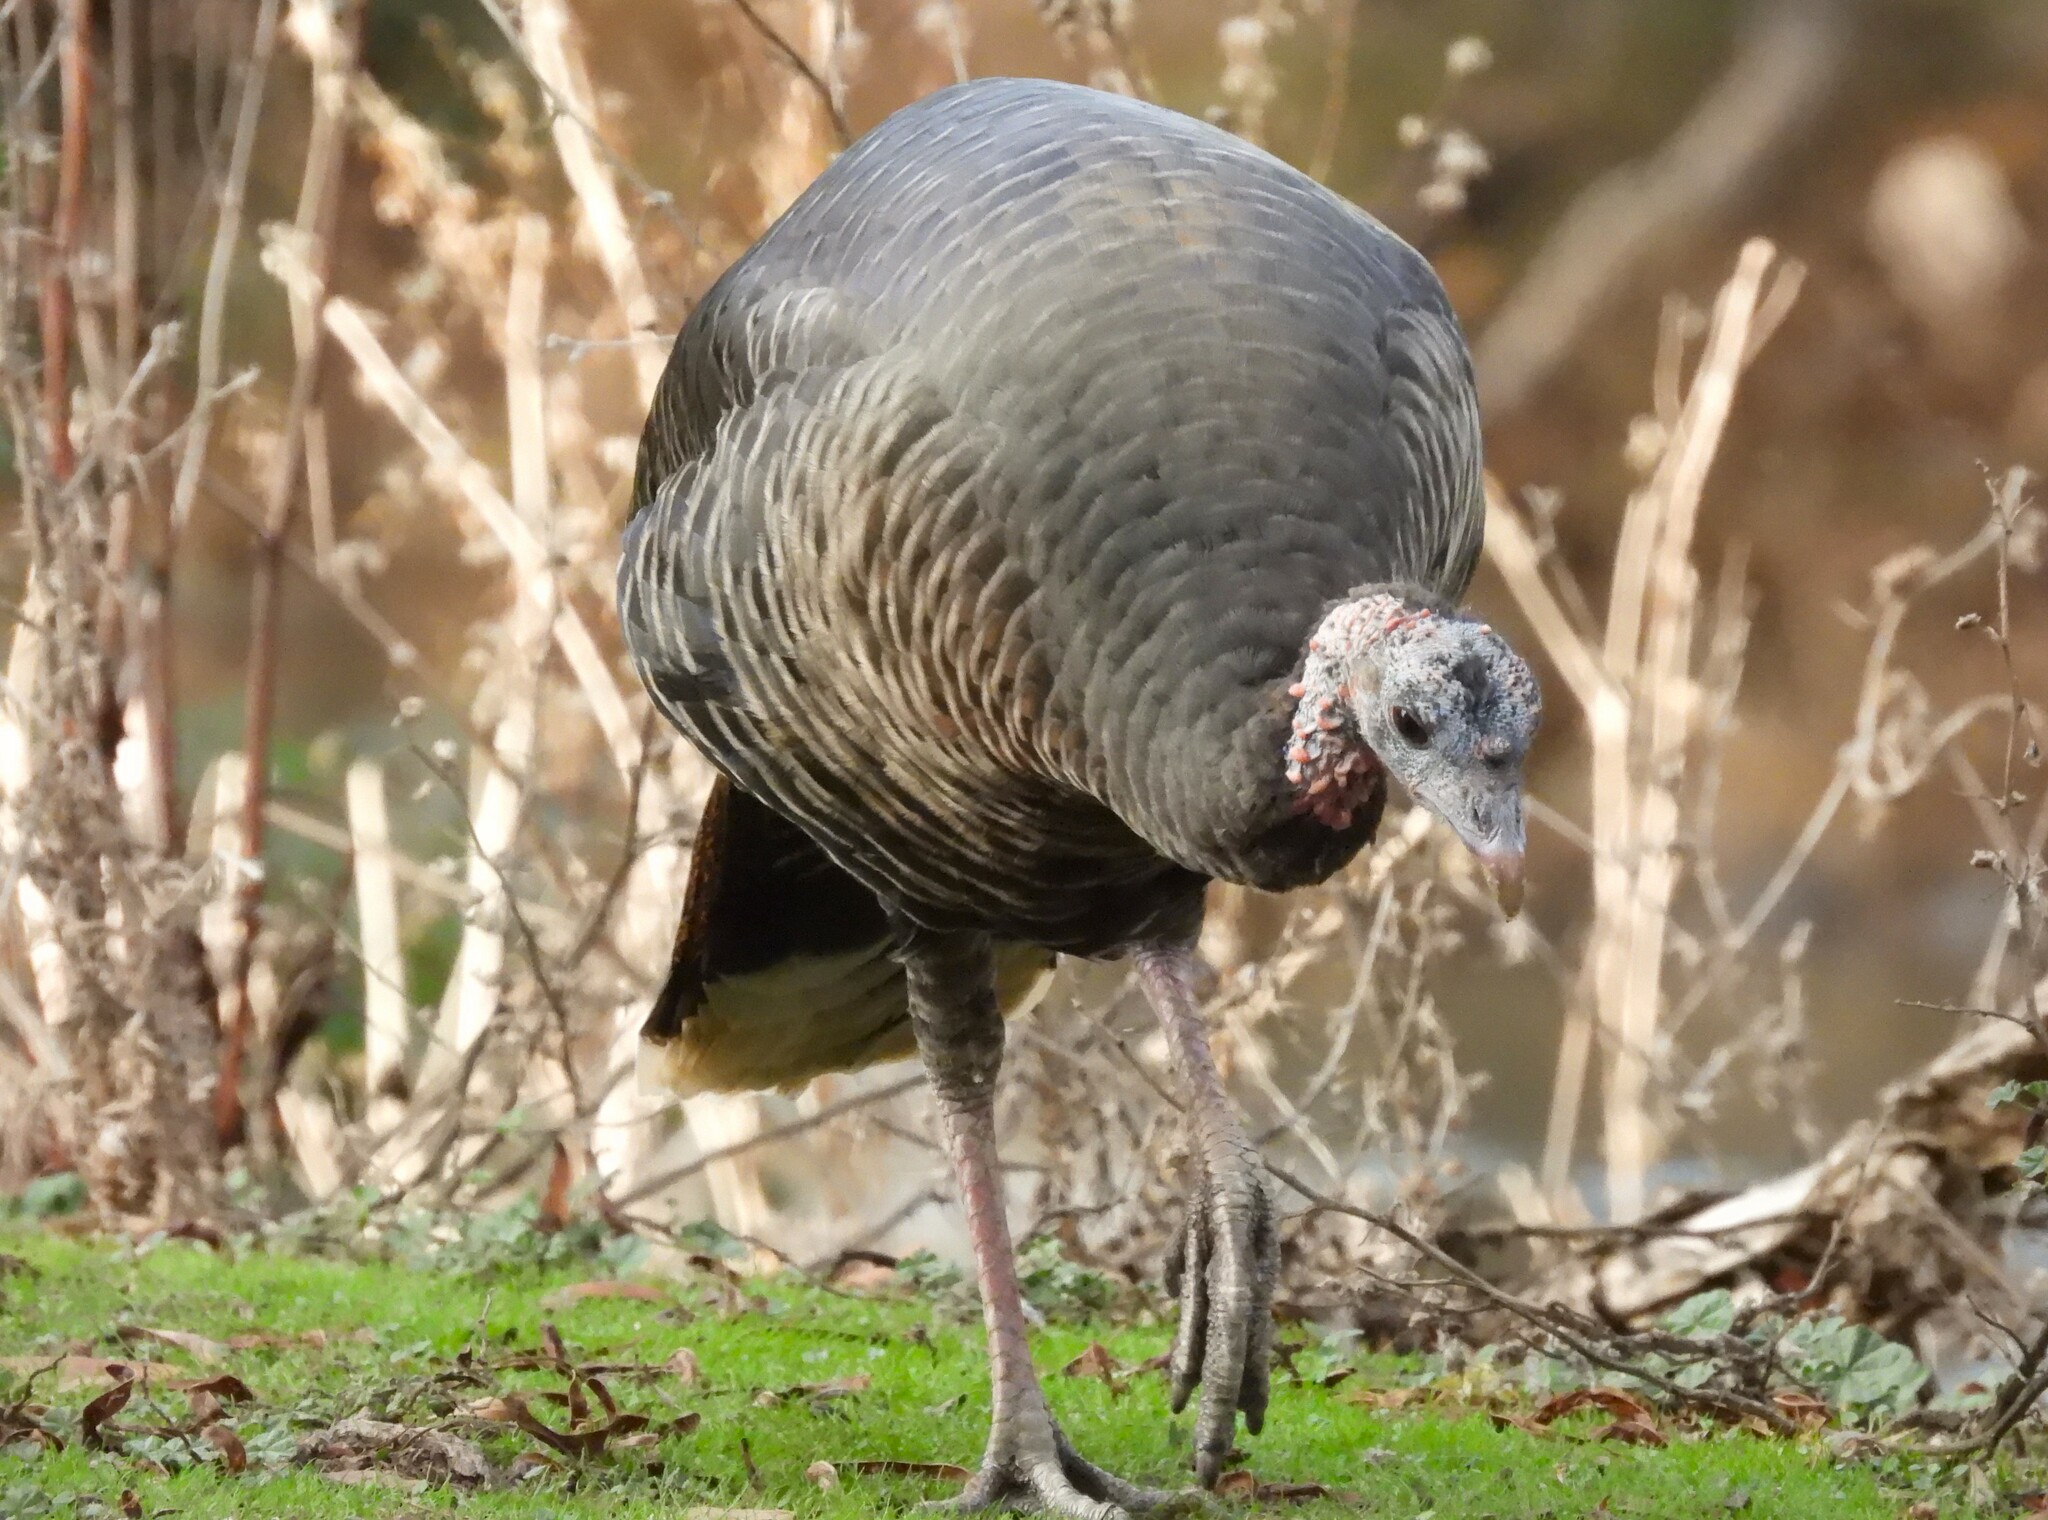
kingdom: Animalia
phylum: Chordata
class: Aves
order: Galliformes
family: Phasianidae
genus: Meleagris
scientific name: Meleagris gallopavo
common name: Wild turkey
